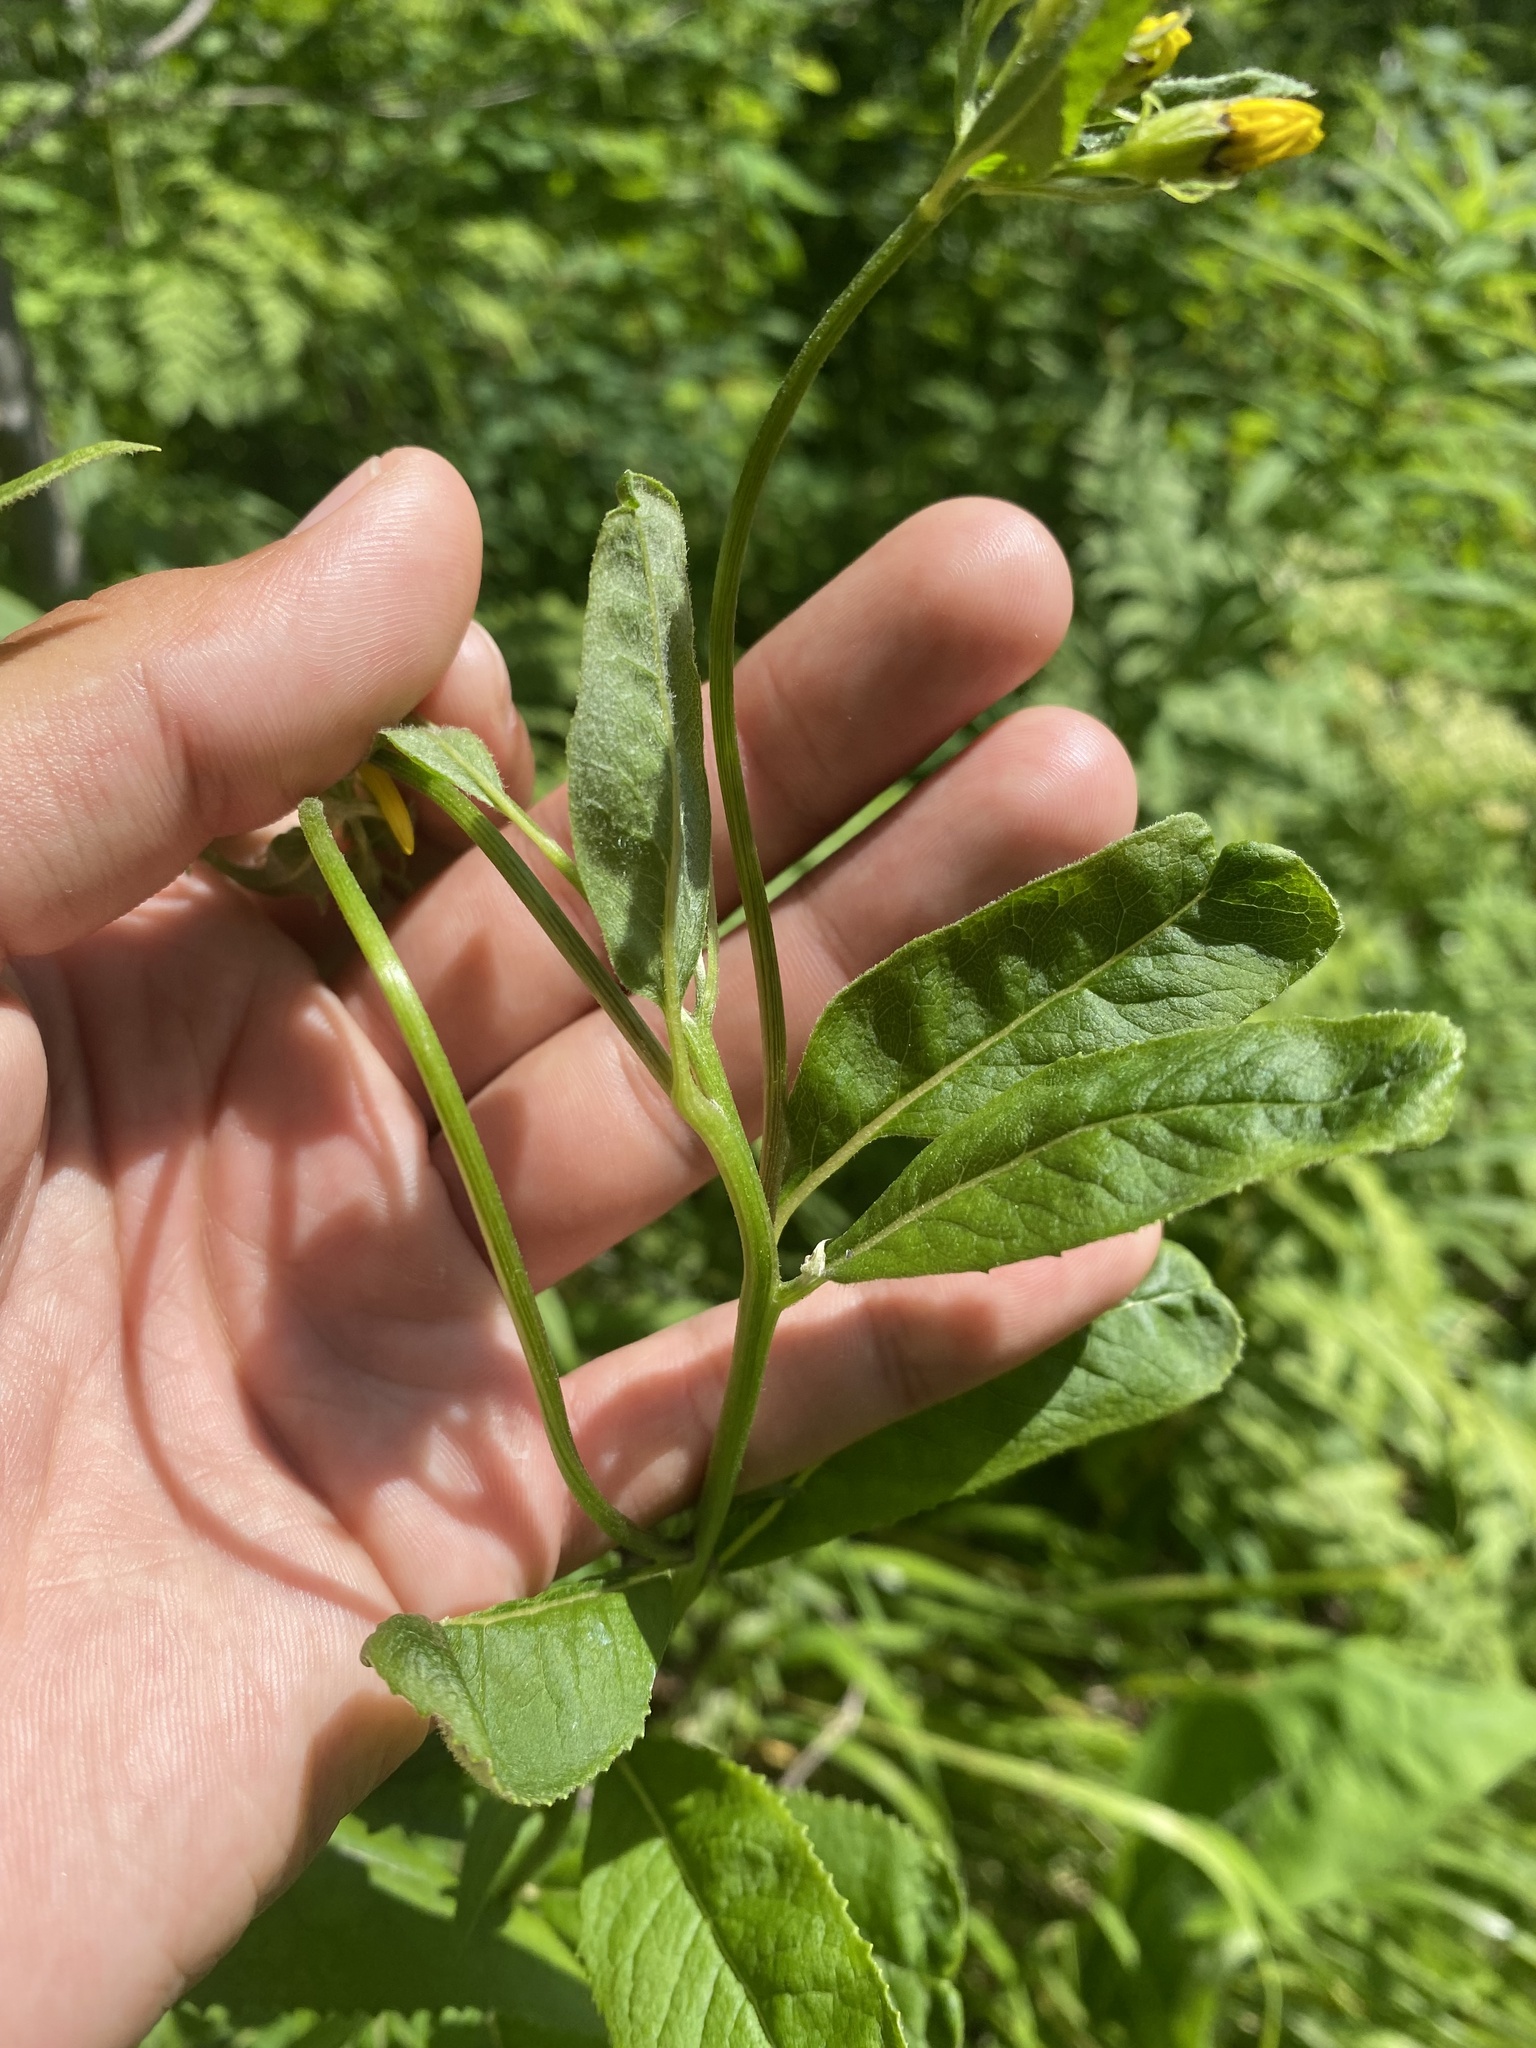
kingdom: Plantae
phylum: Tracheophyta
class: Magnoliopsida
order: Asterales
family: Asteraceae
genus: Senecio
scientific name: Senecio nemorensis
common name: Alpine ragwort
